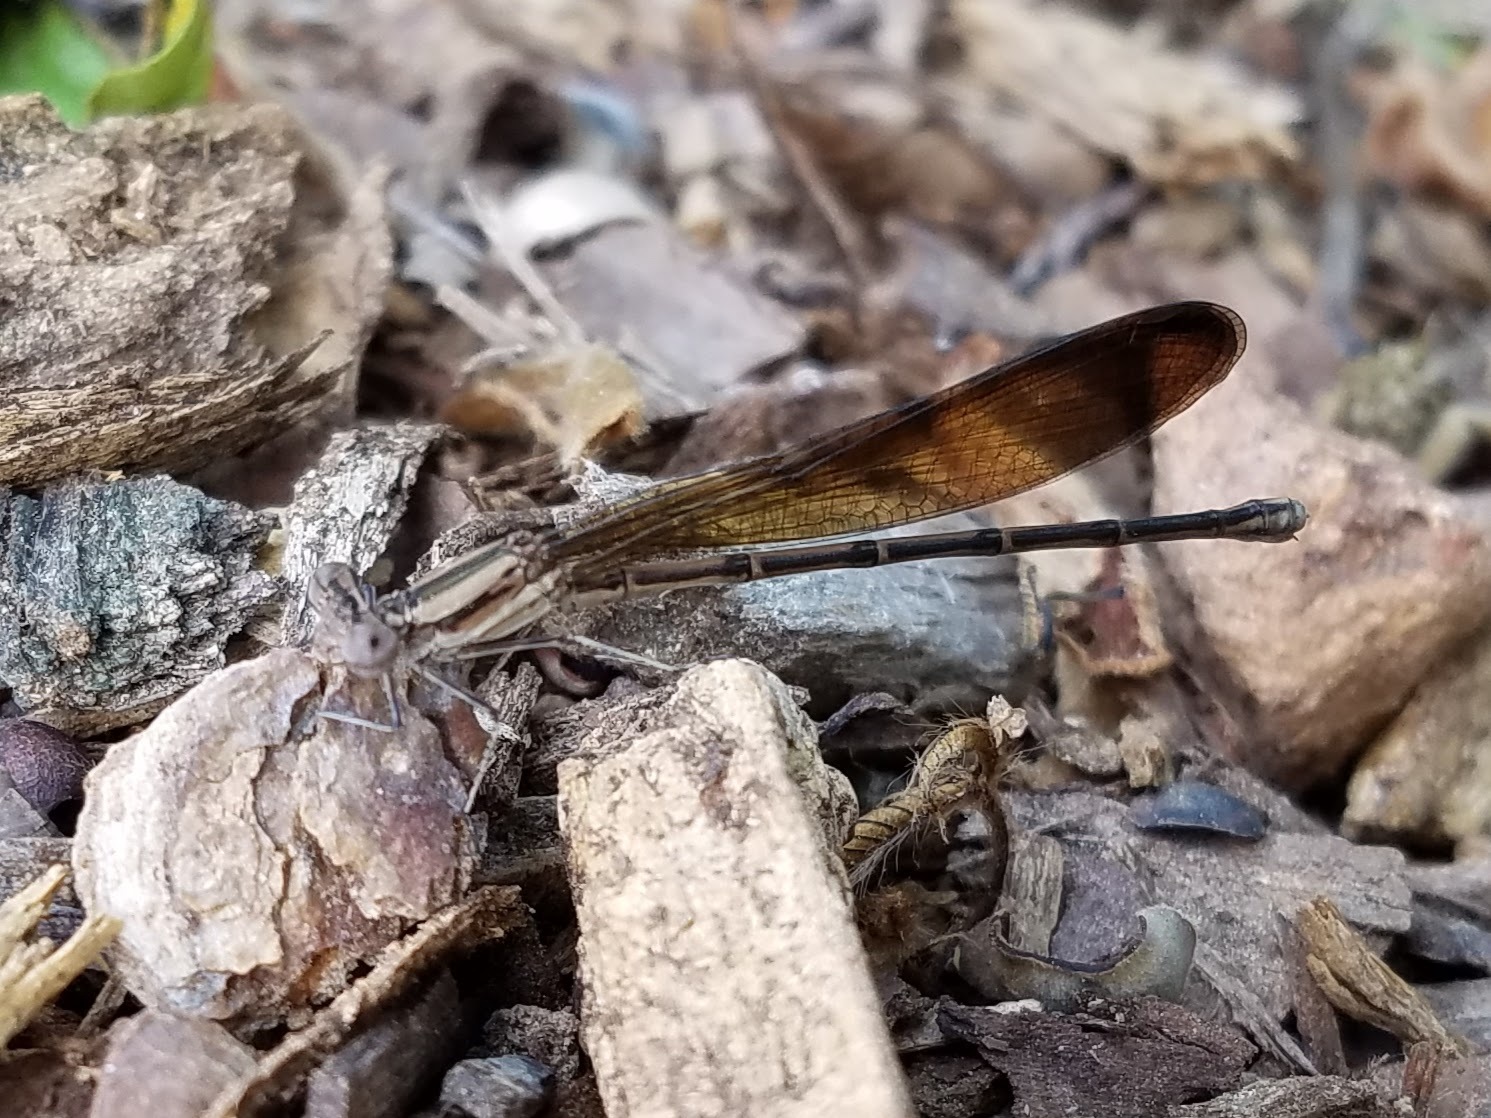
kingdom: Animalia
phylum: Arthropoda
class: Insecta
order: Odonata
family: Coenagrionidae
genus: Argia
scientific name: Argia fumipennis
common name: Variable dancer
